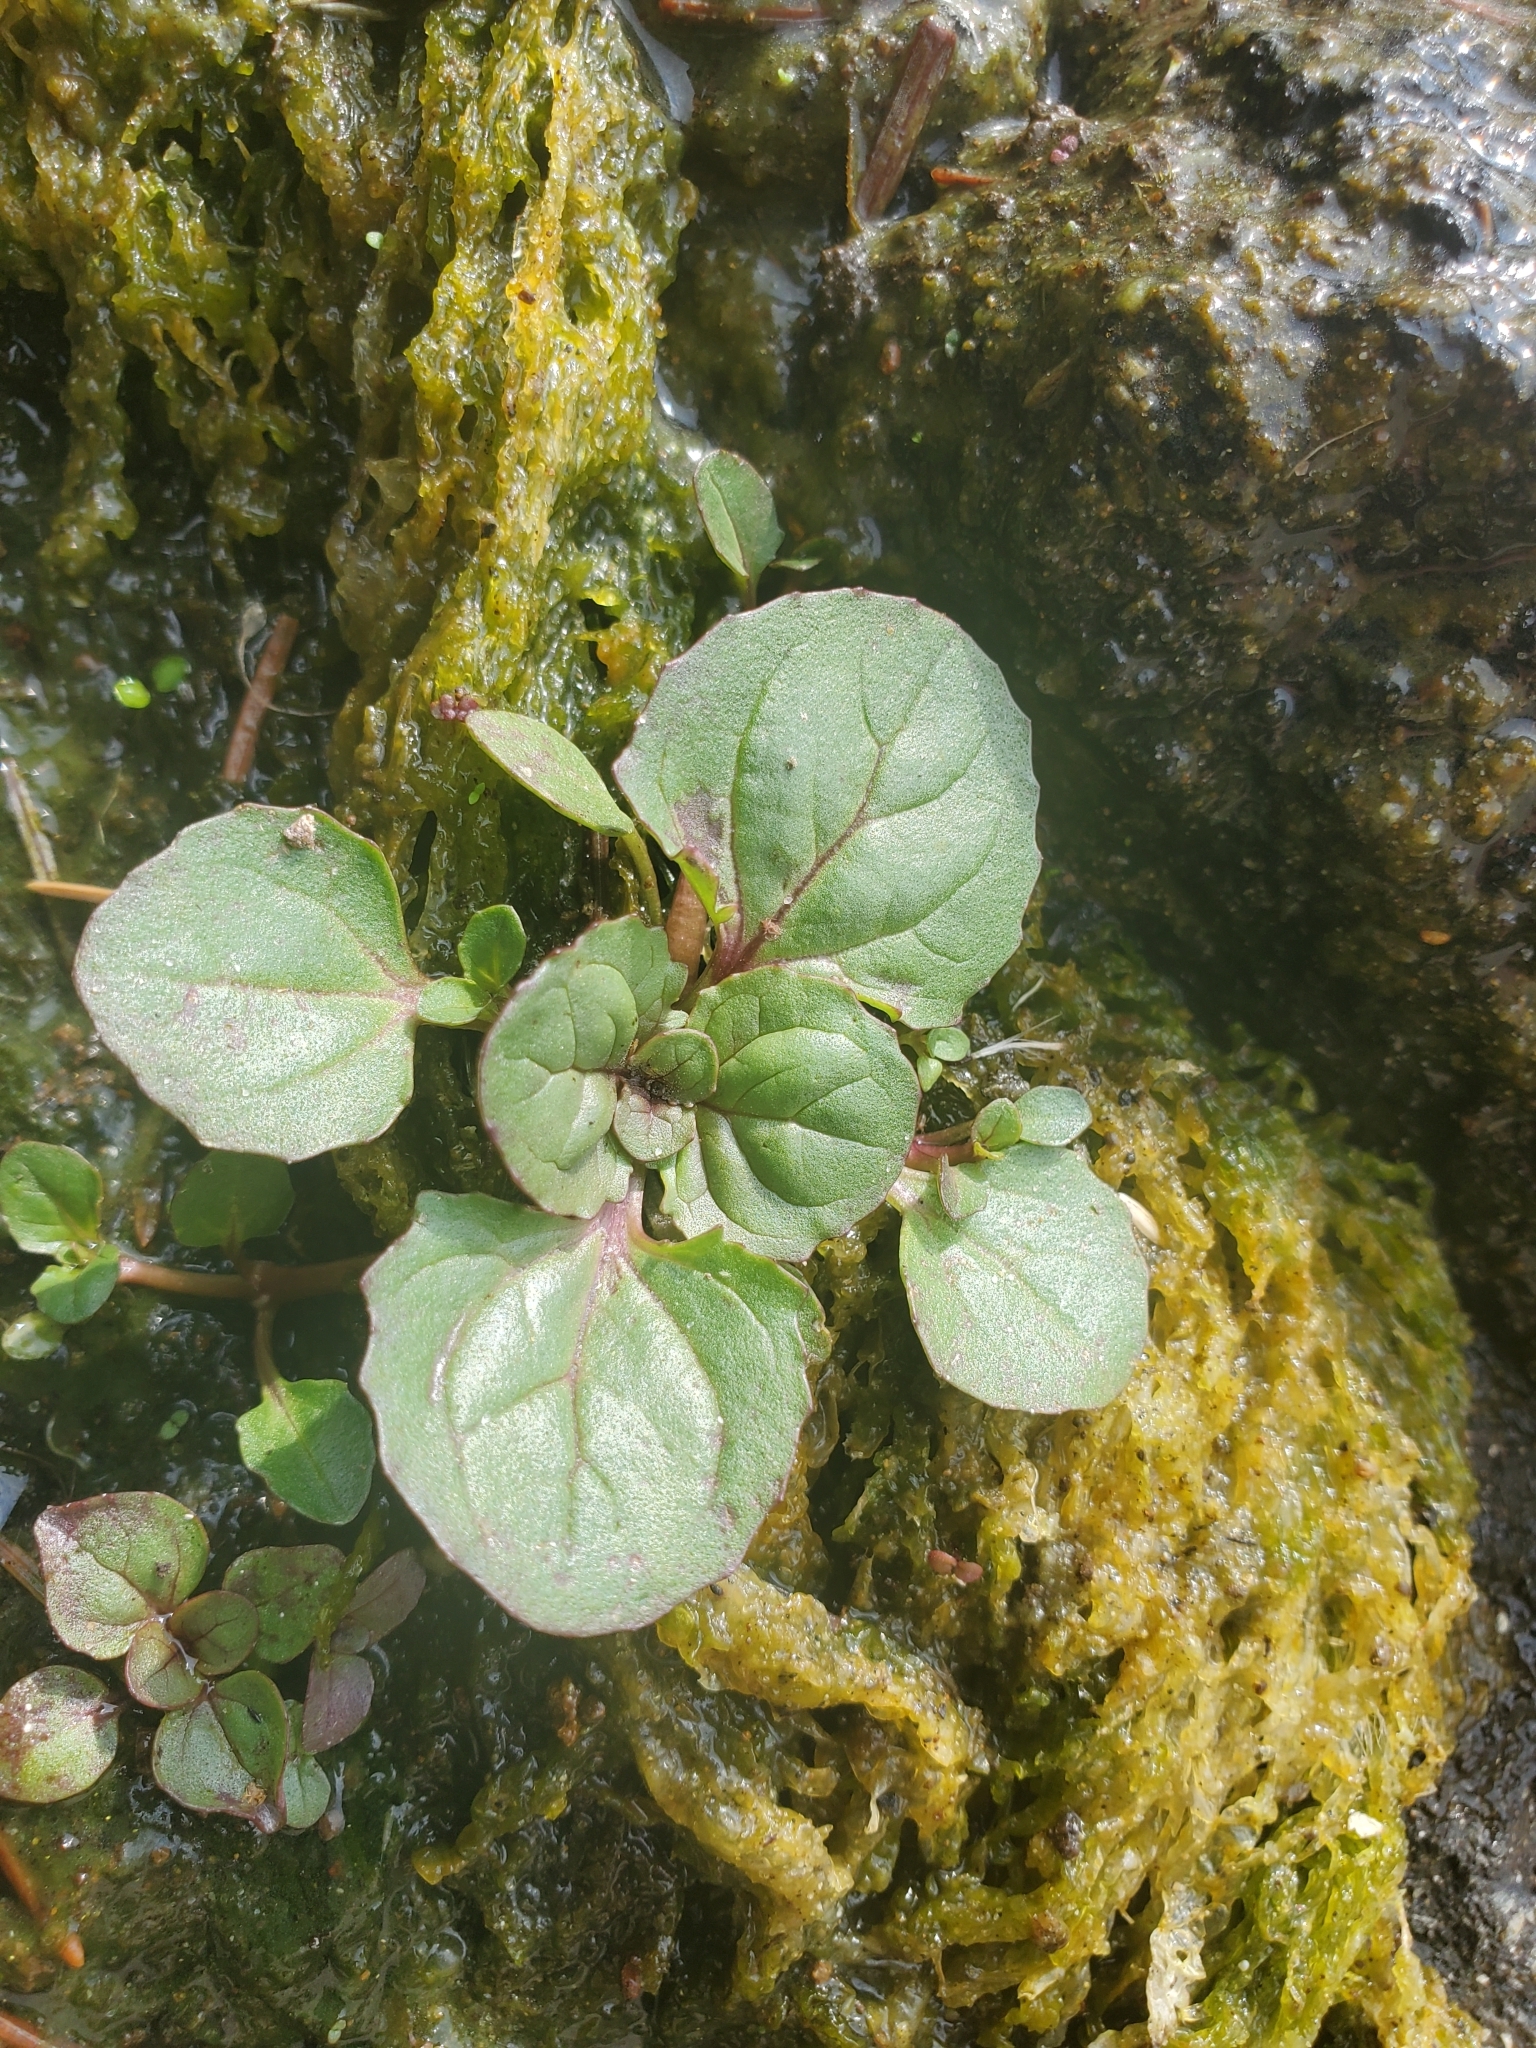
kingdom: Plantae
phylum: Tracheophyta
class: Magnoliopsida
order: Lamiales
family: Phrymaceae
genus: Erythranthe
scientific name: Erythranthe grandis
